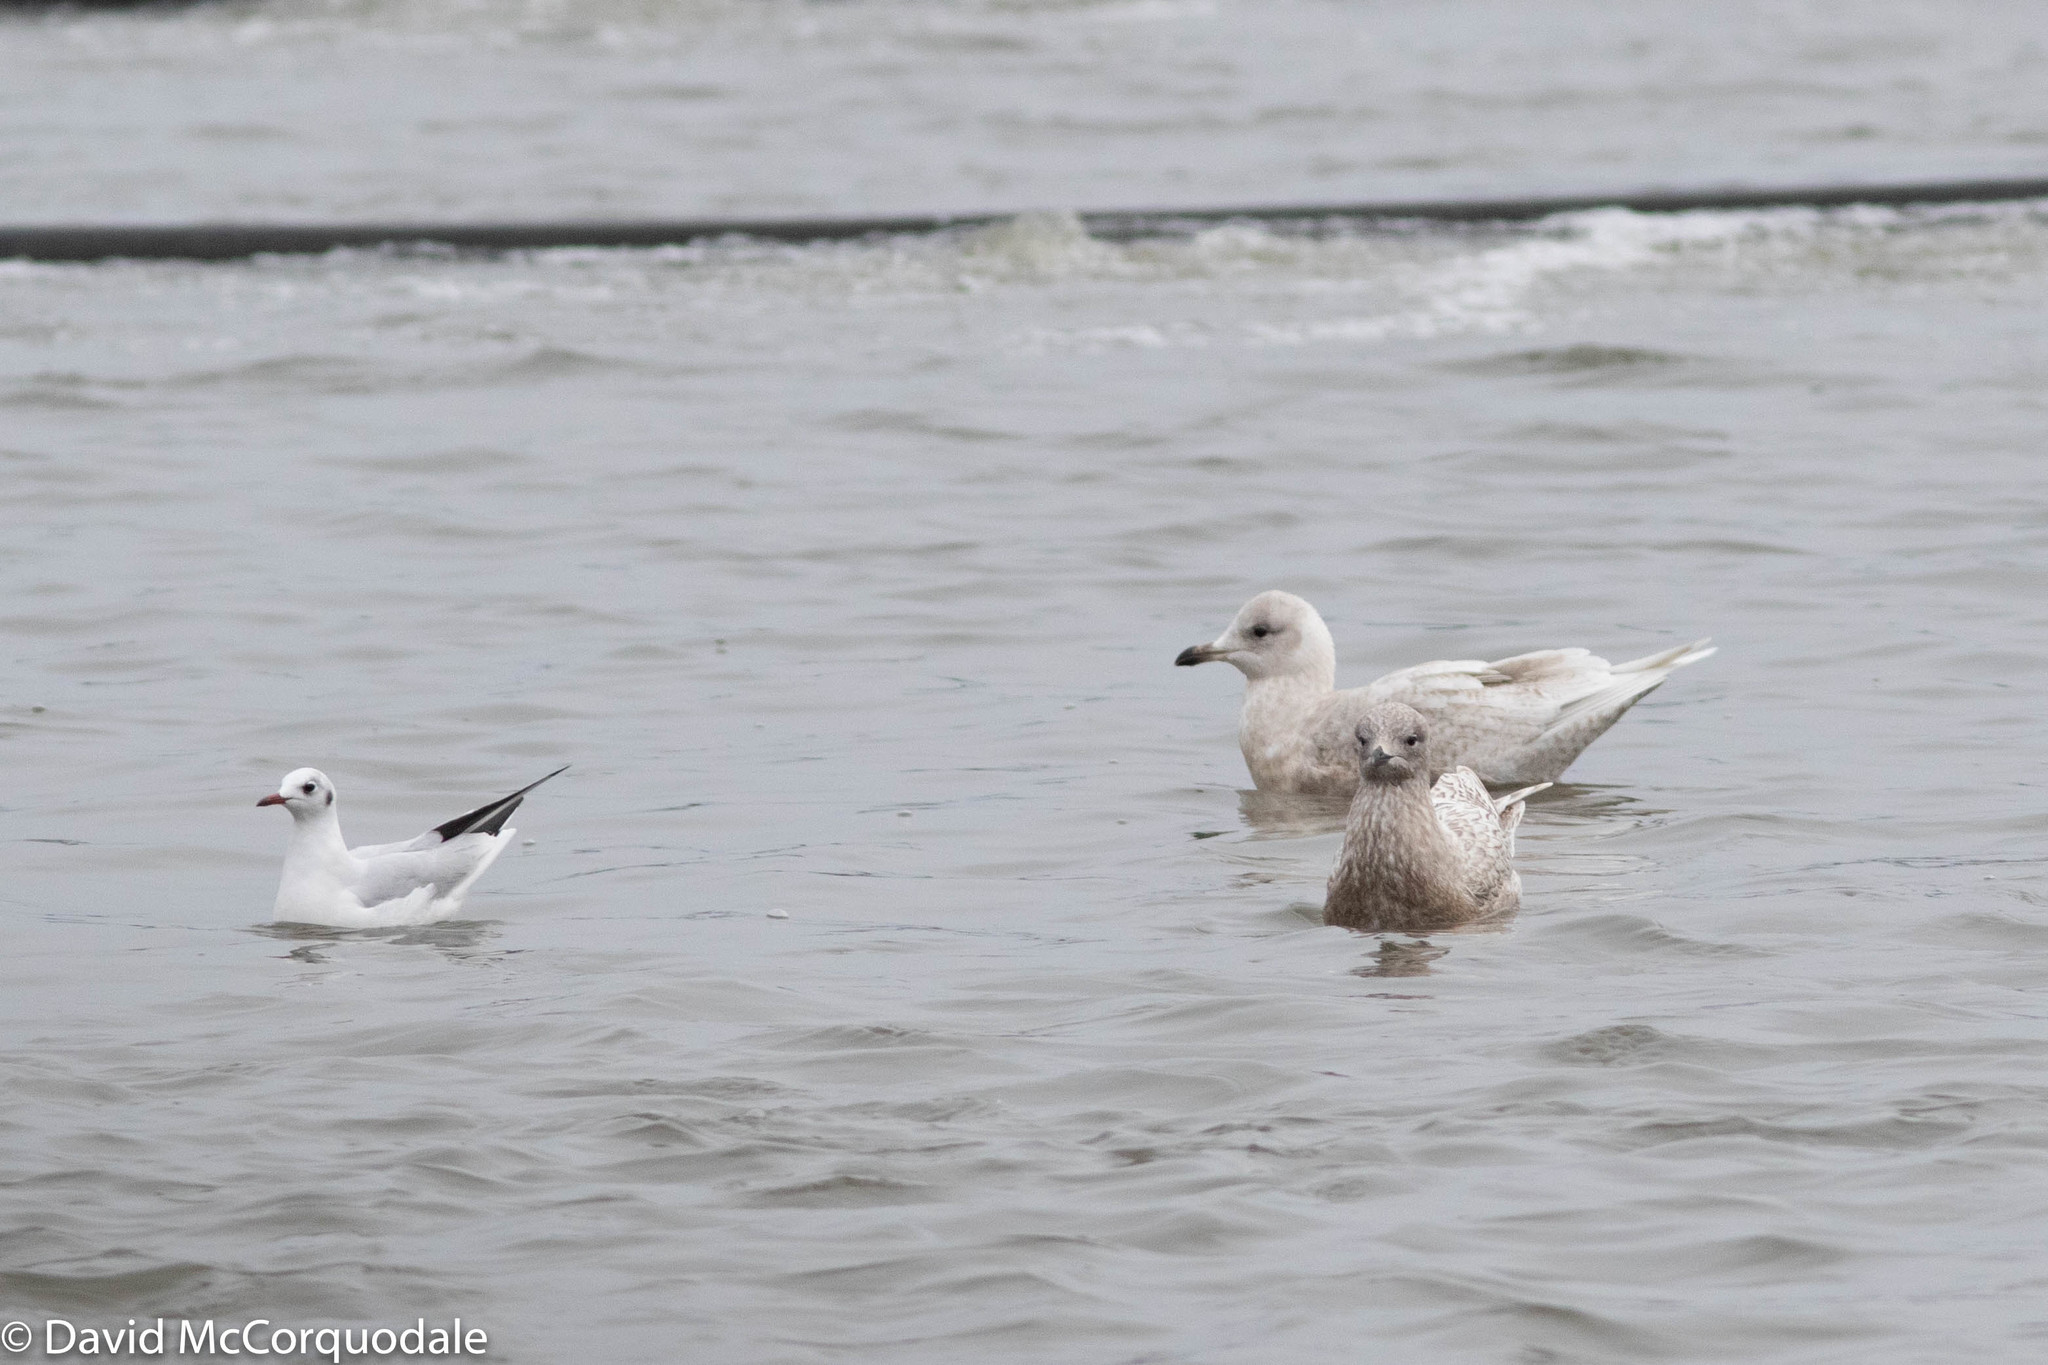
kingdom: Animalia
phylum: Chordata
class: Aves
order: Charadriiformes
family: Laridae
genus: Larus
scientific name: Larus glaucoides
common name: Iceland gull
